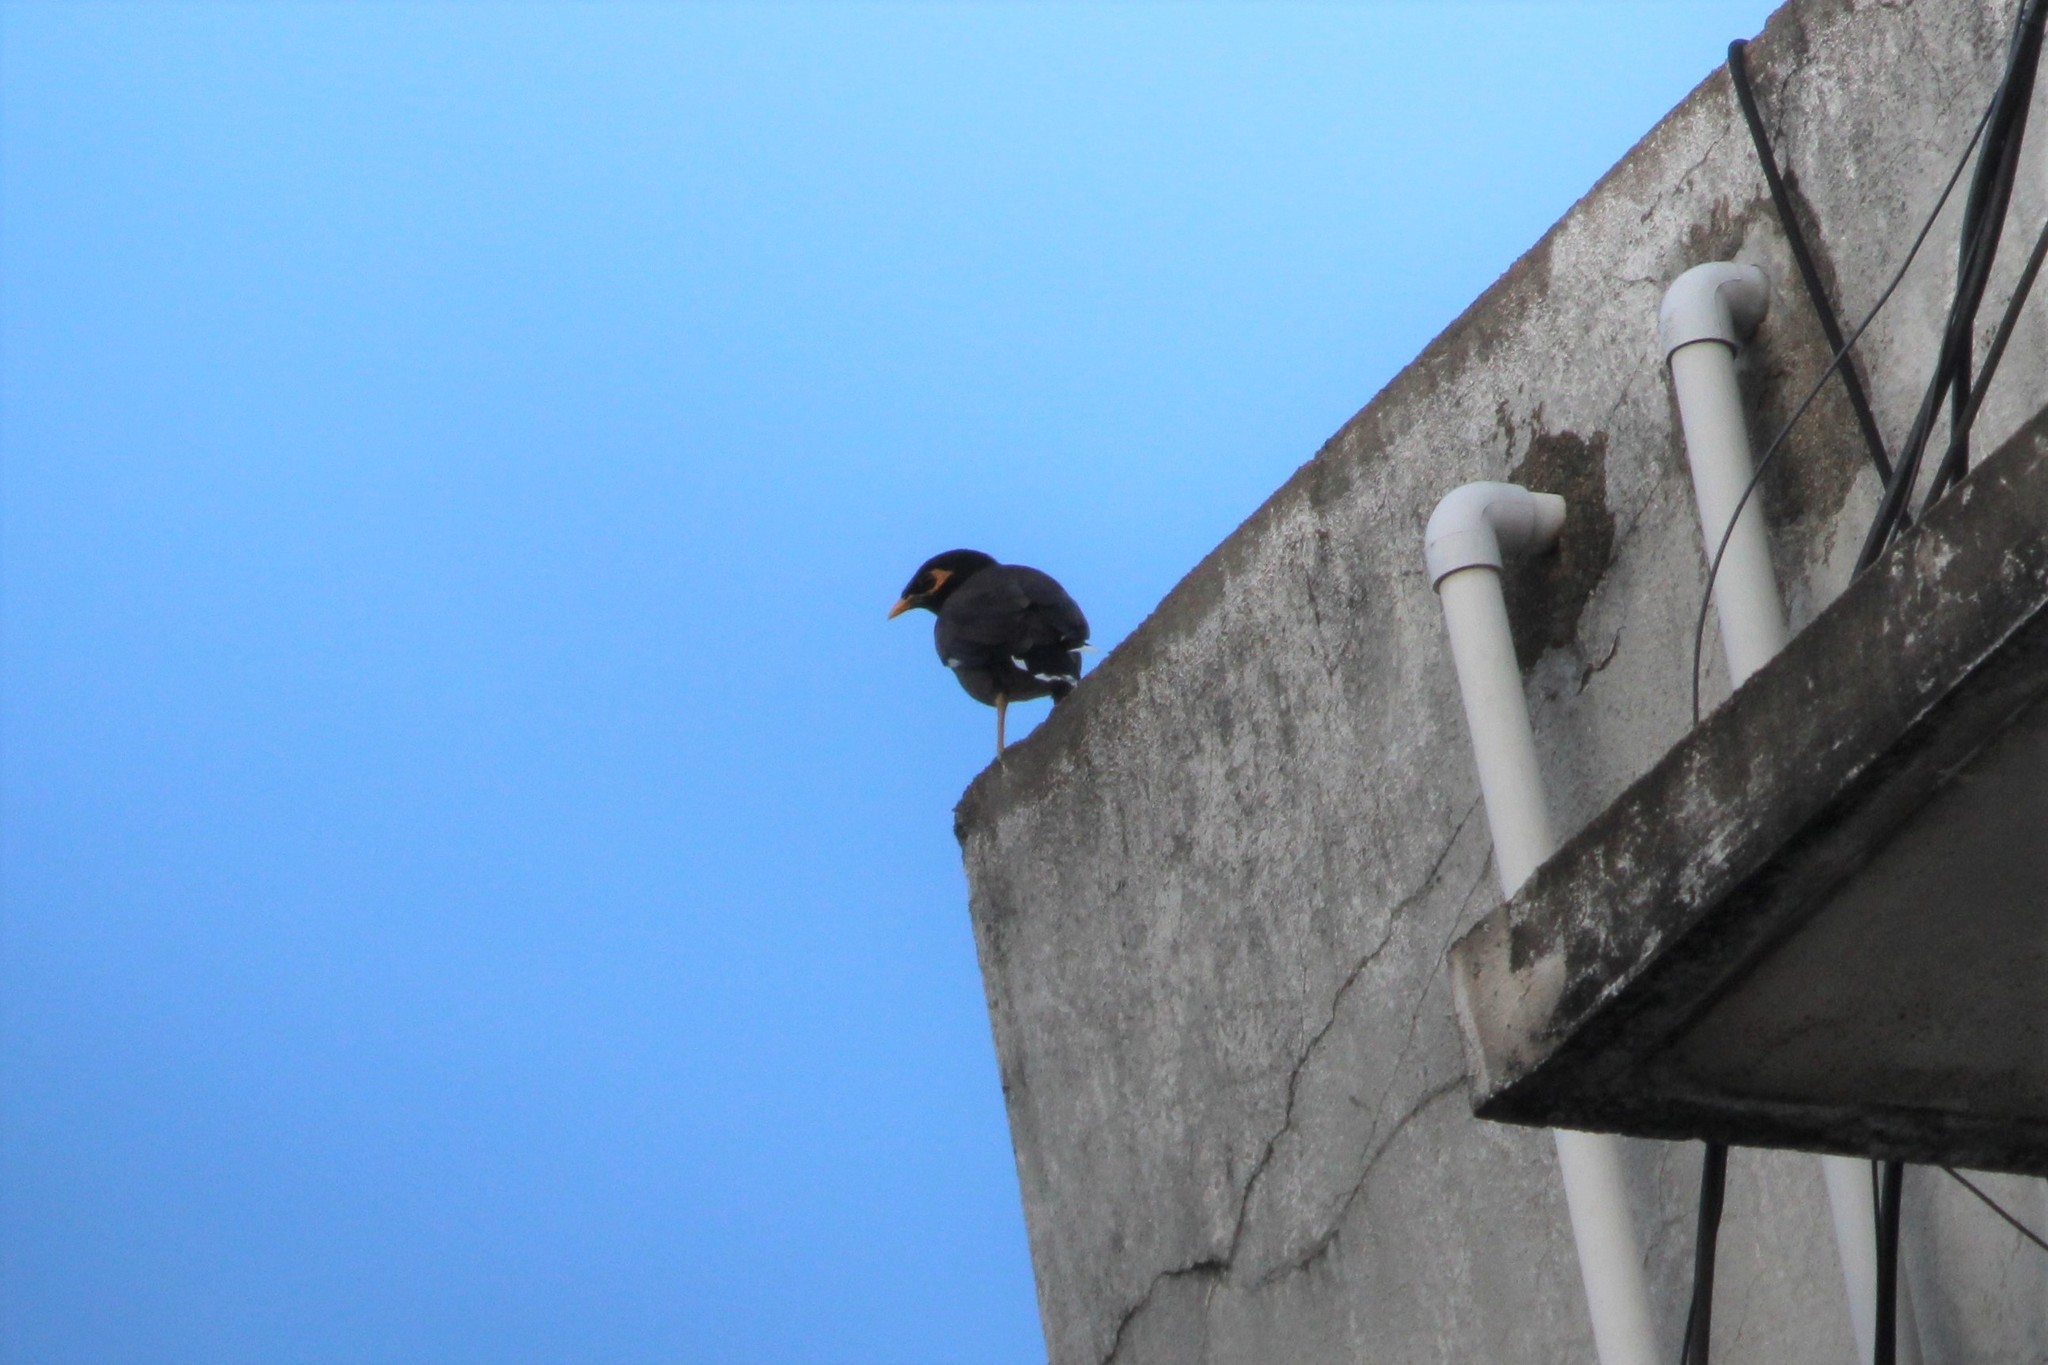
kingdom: Animalia
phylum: Chordata
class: Aves
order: Passeriformes
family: Sturnidae
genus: Acridotheres
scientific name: Acridotheres tristis
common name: Common myna
